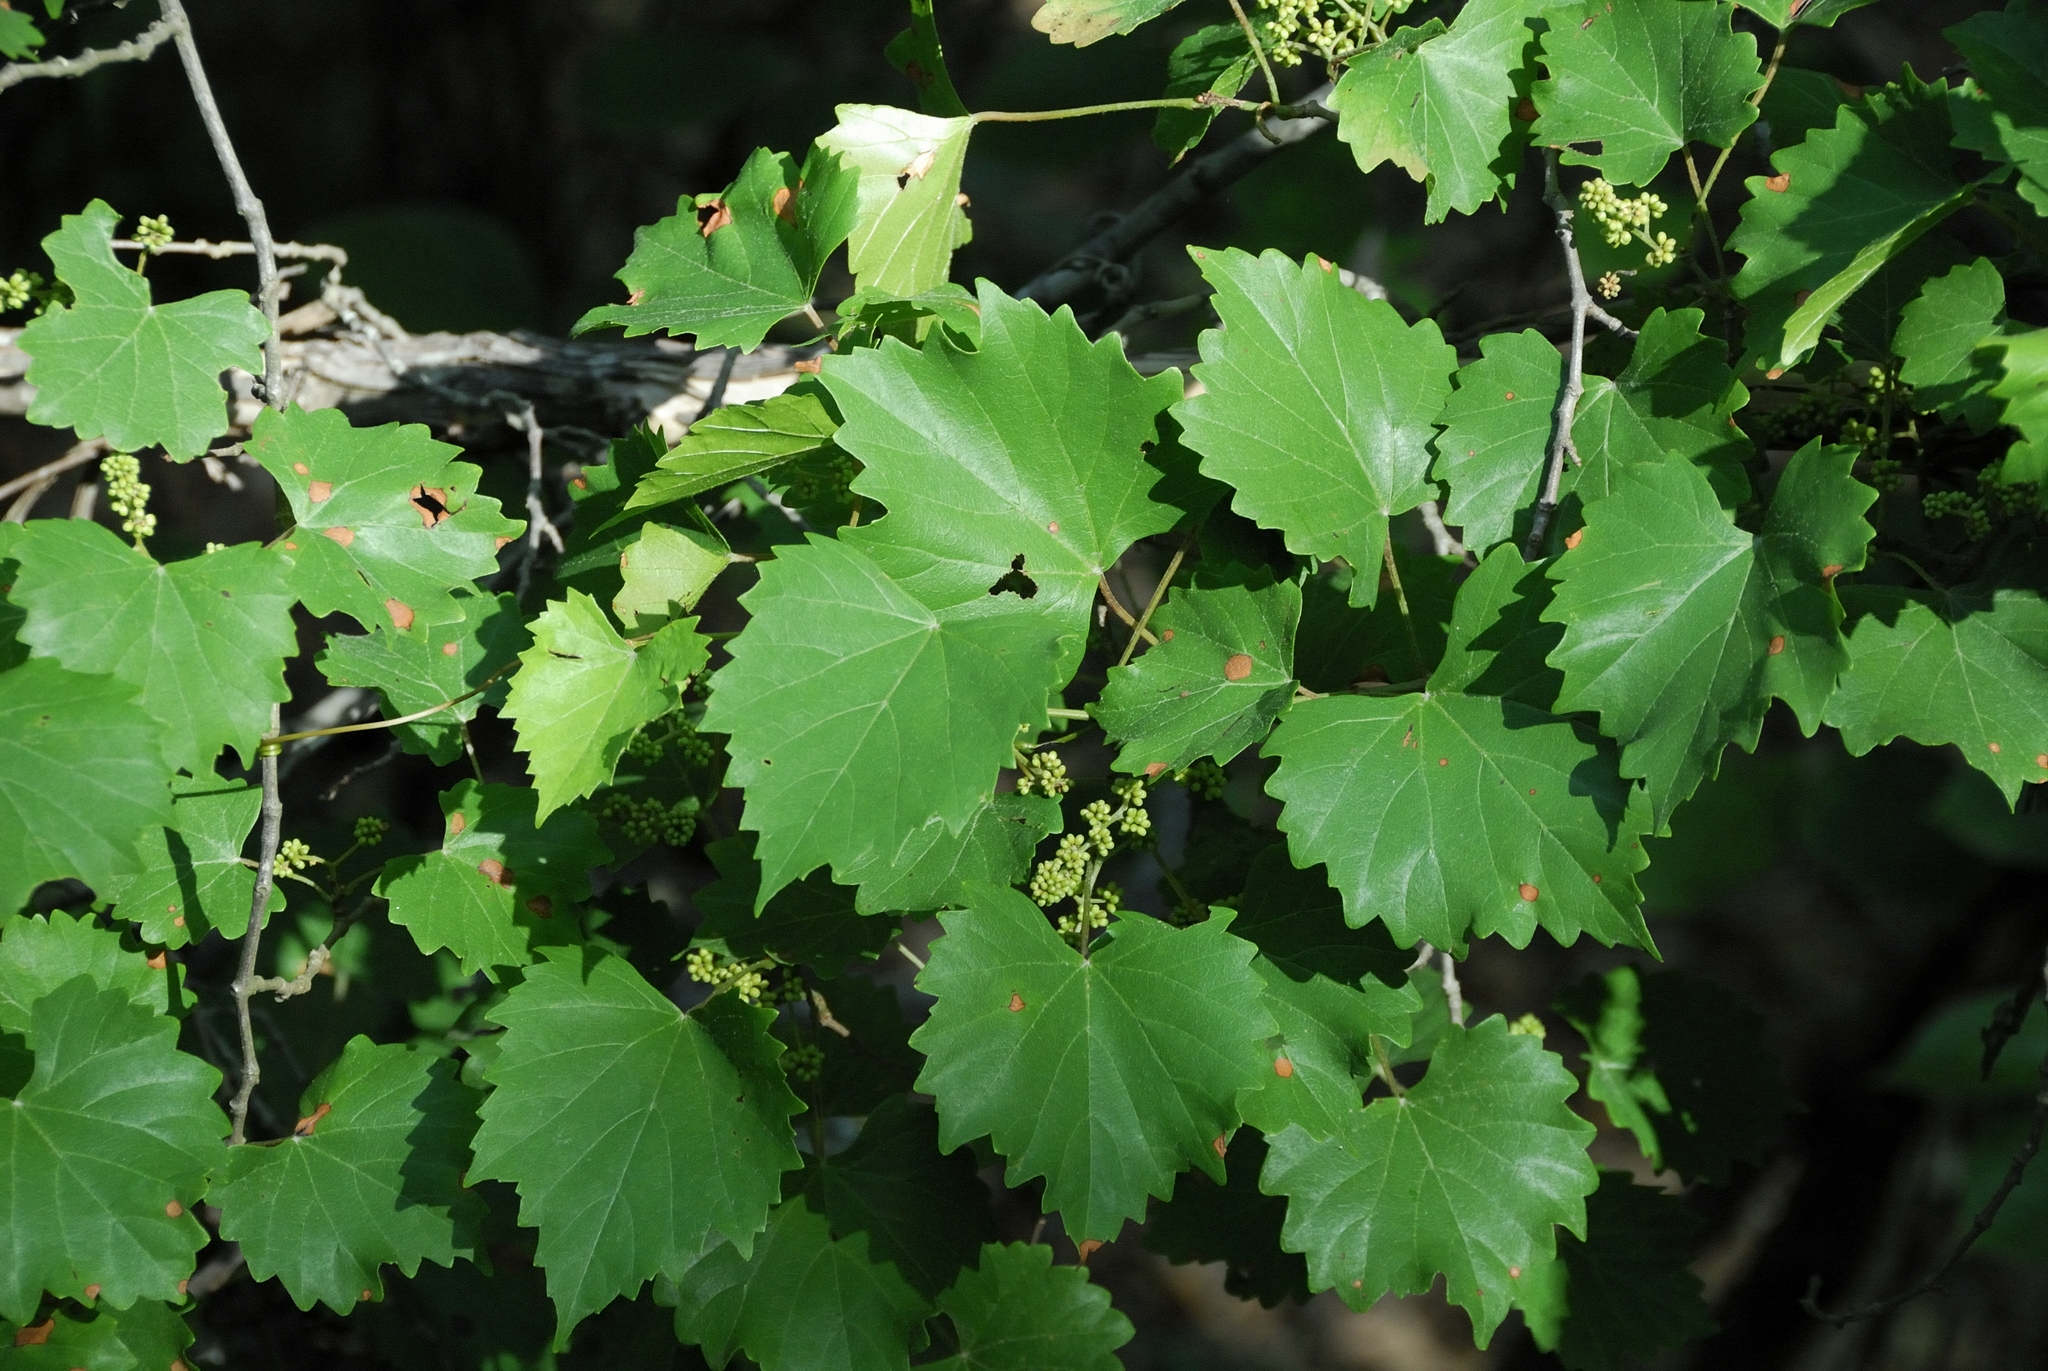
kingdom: Plantae
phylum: Tracheophyta
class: Magnoliopsida
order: Vitales
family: Vitaceae
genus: Vitis
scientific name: Vitis rotundifolia
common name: Muscadine grape
